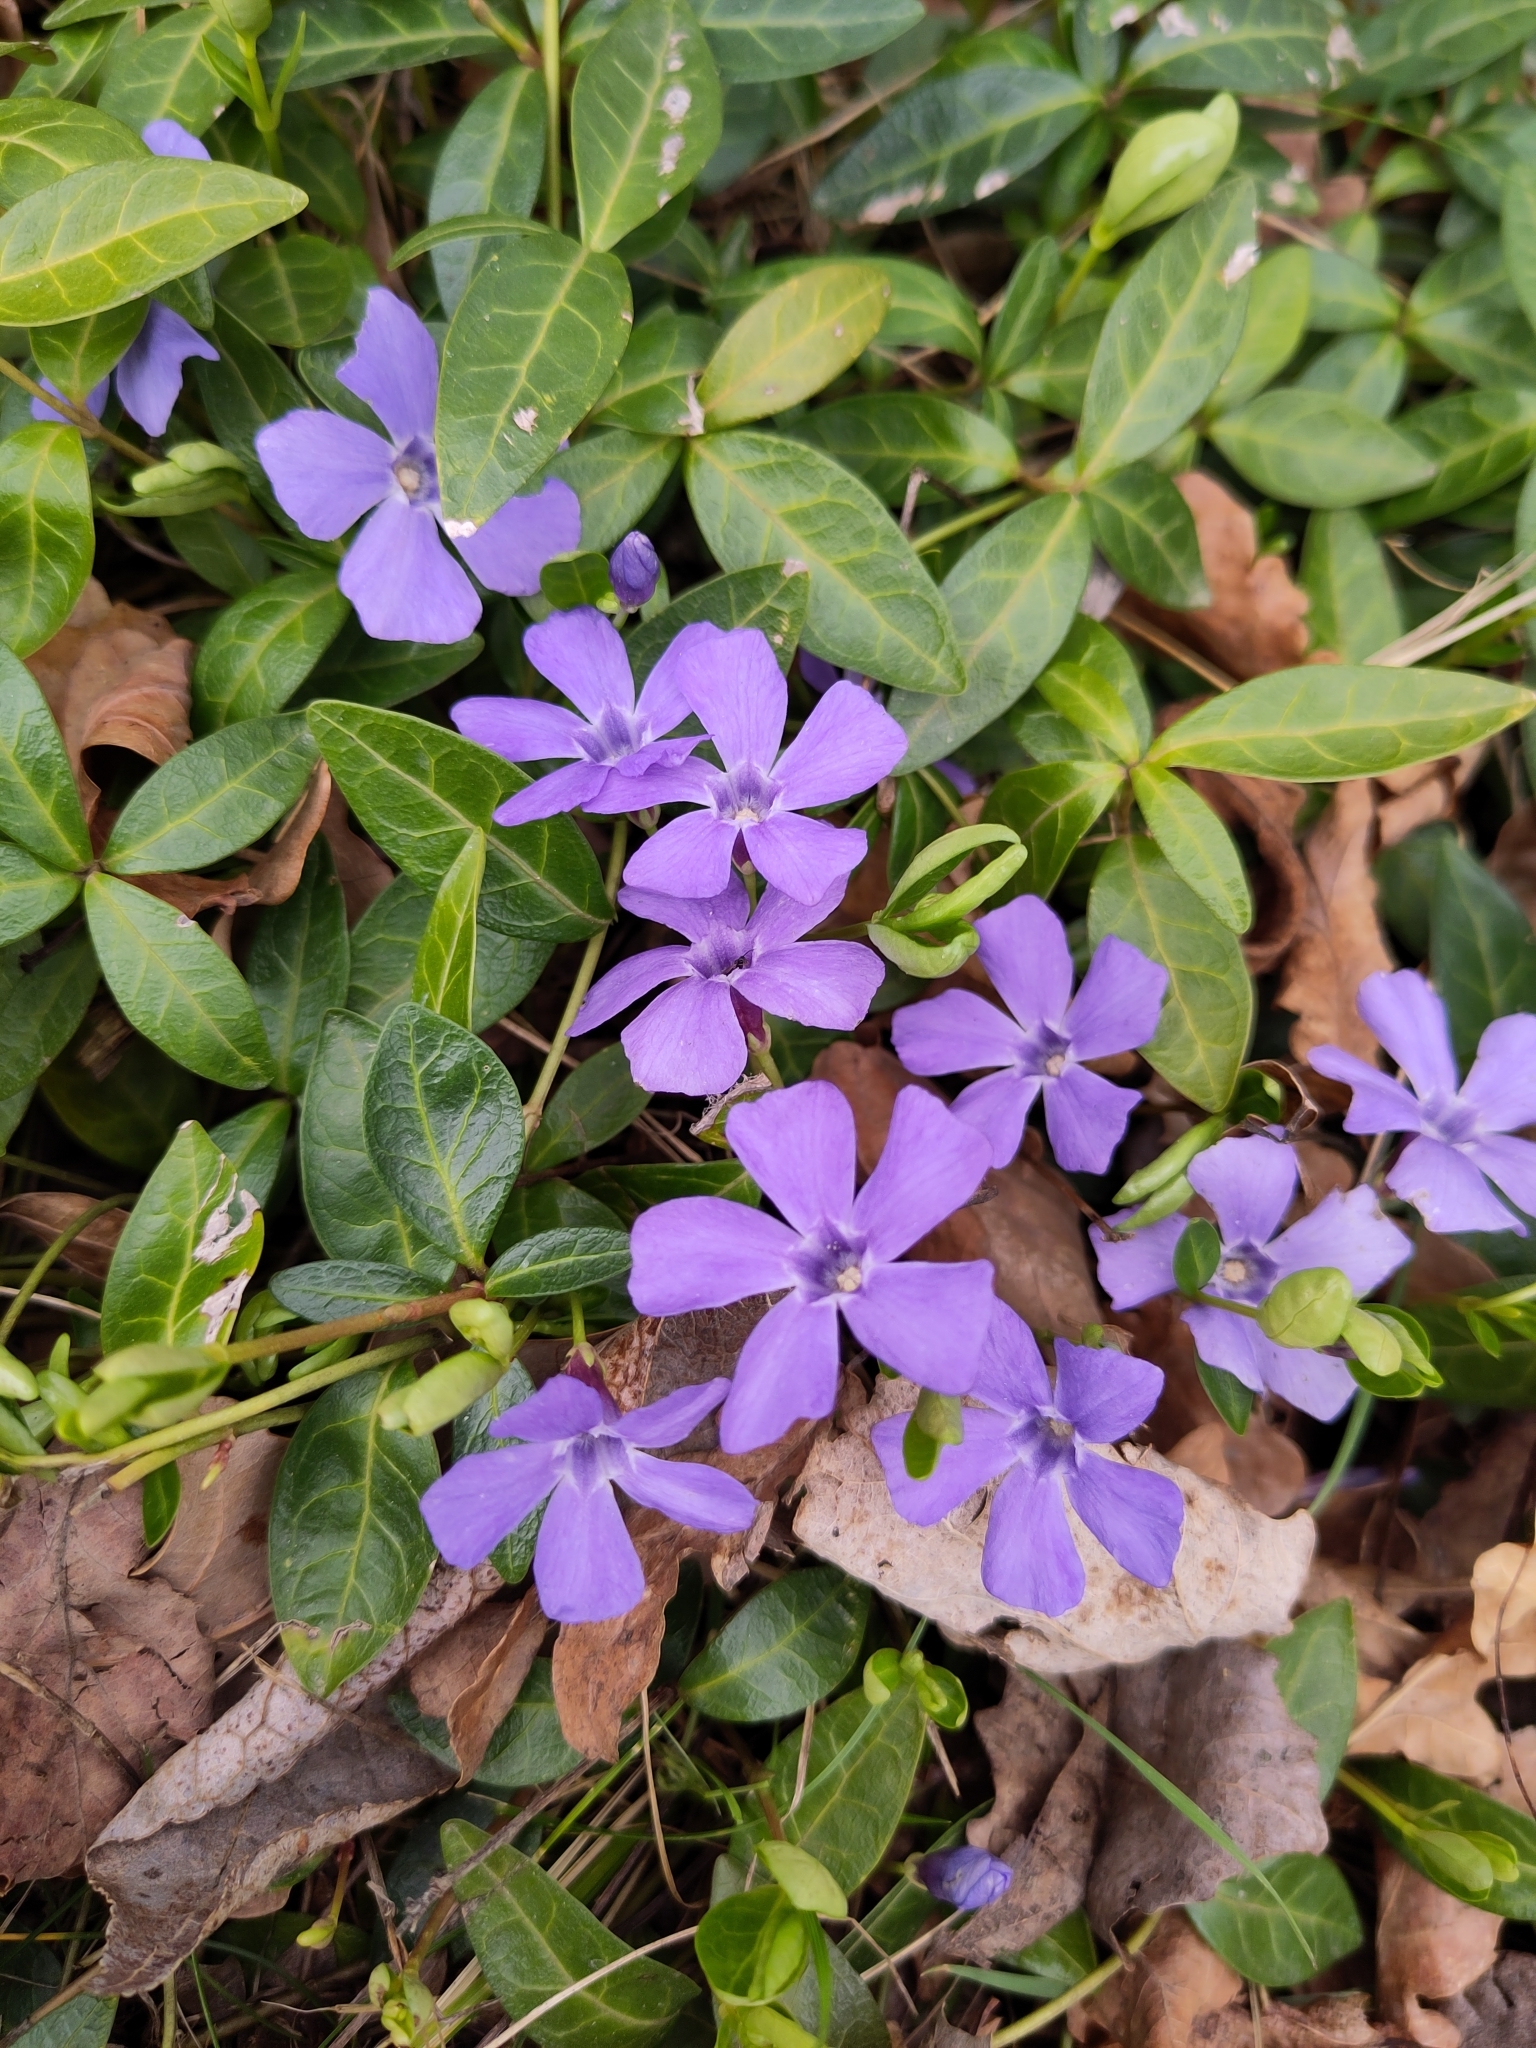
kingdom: Plantae
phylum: Tracheophyta
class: Magnoliopsida
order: Gentianales
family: Apocynaceae
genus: Vinca
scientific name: Vinca minor
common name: Lesser periwinkle
